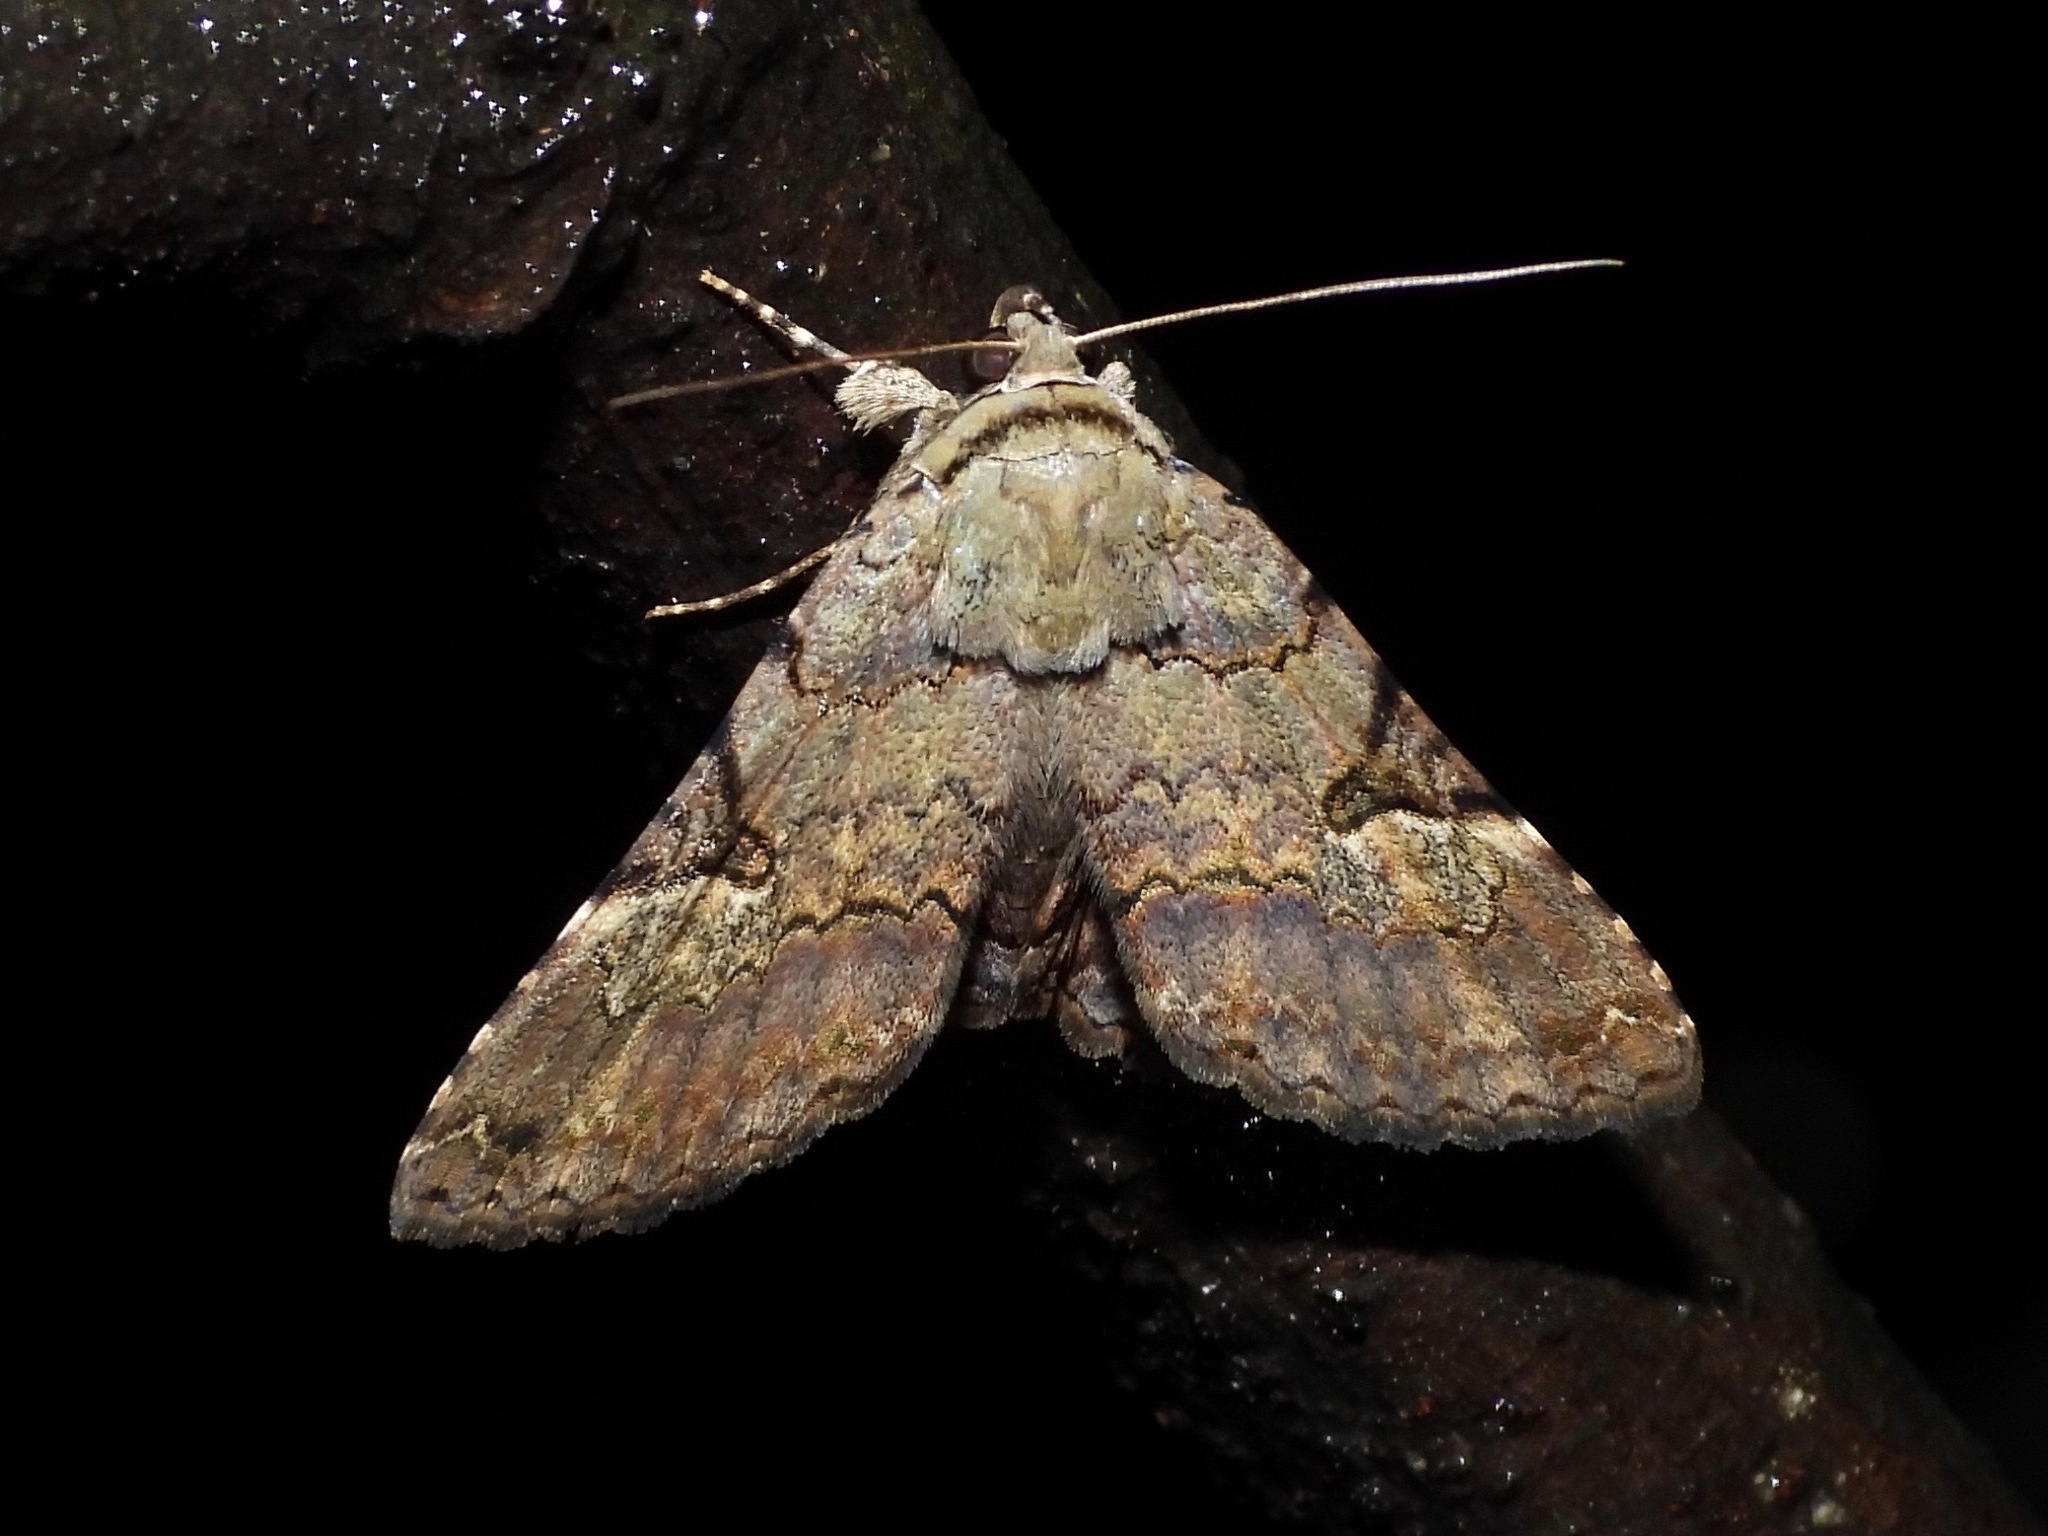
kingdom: Animalia
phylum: Arthropoda
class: Insecta
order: Lepidoptera
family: Erebidae
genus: Acolasis
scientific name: Acolasis Coenipeta suttea
